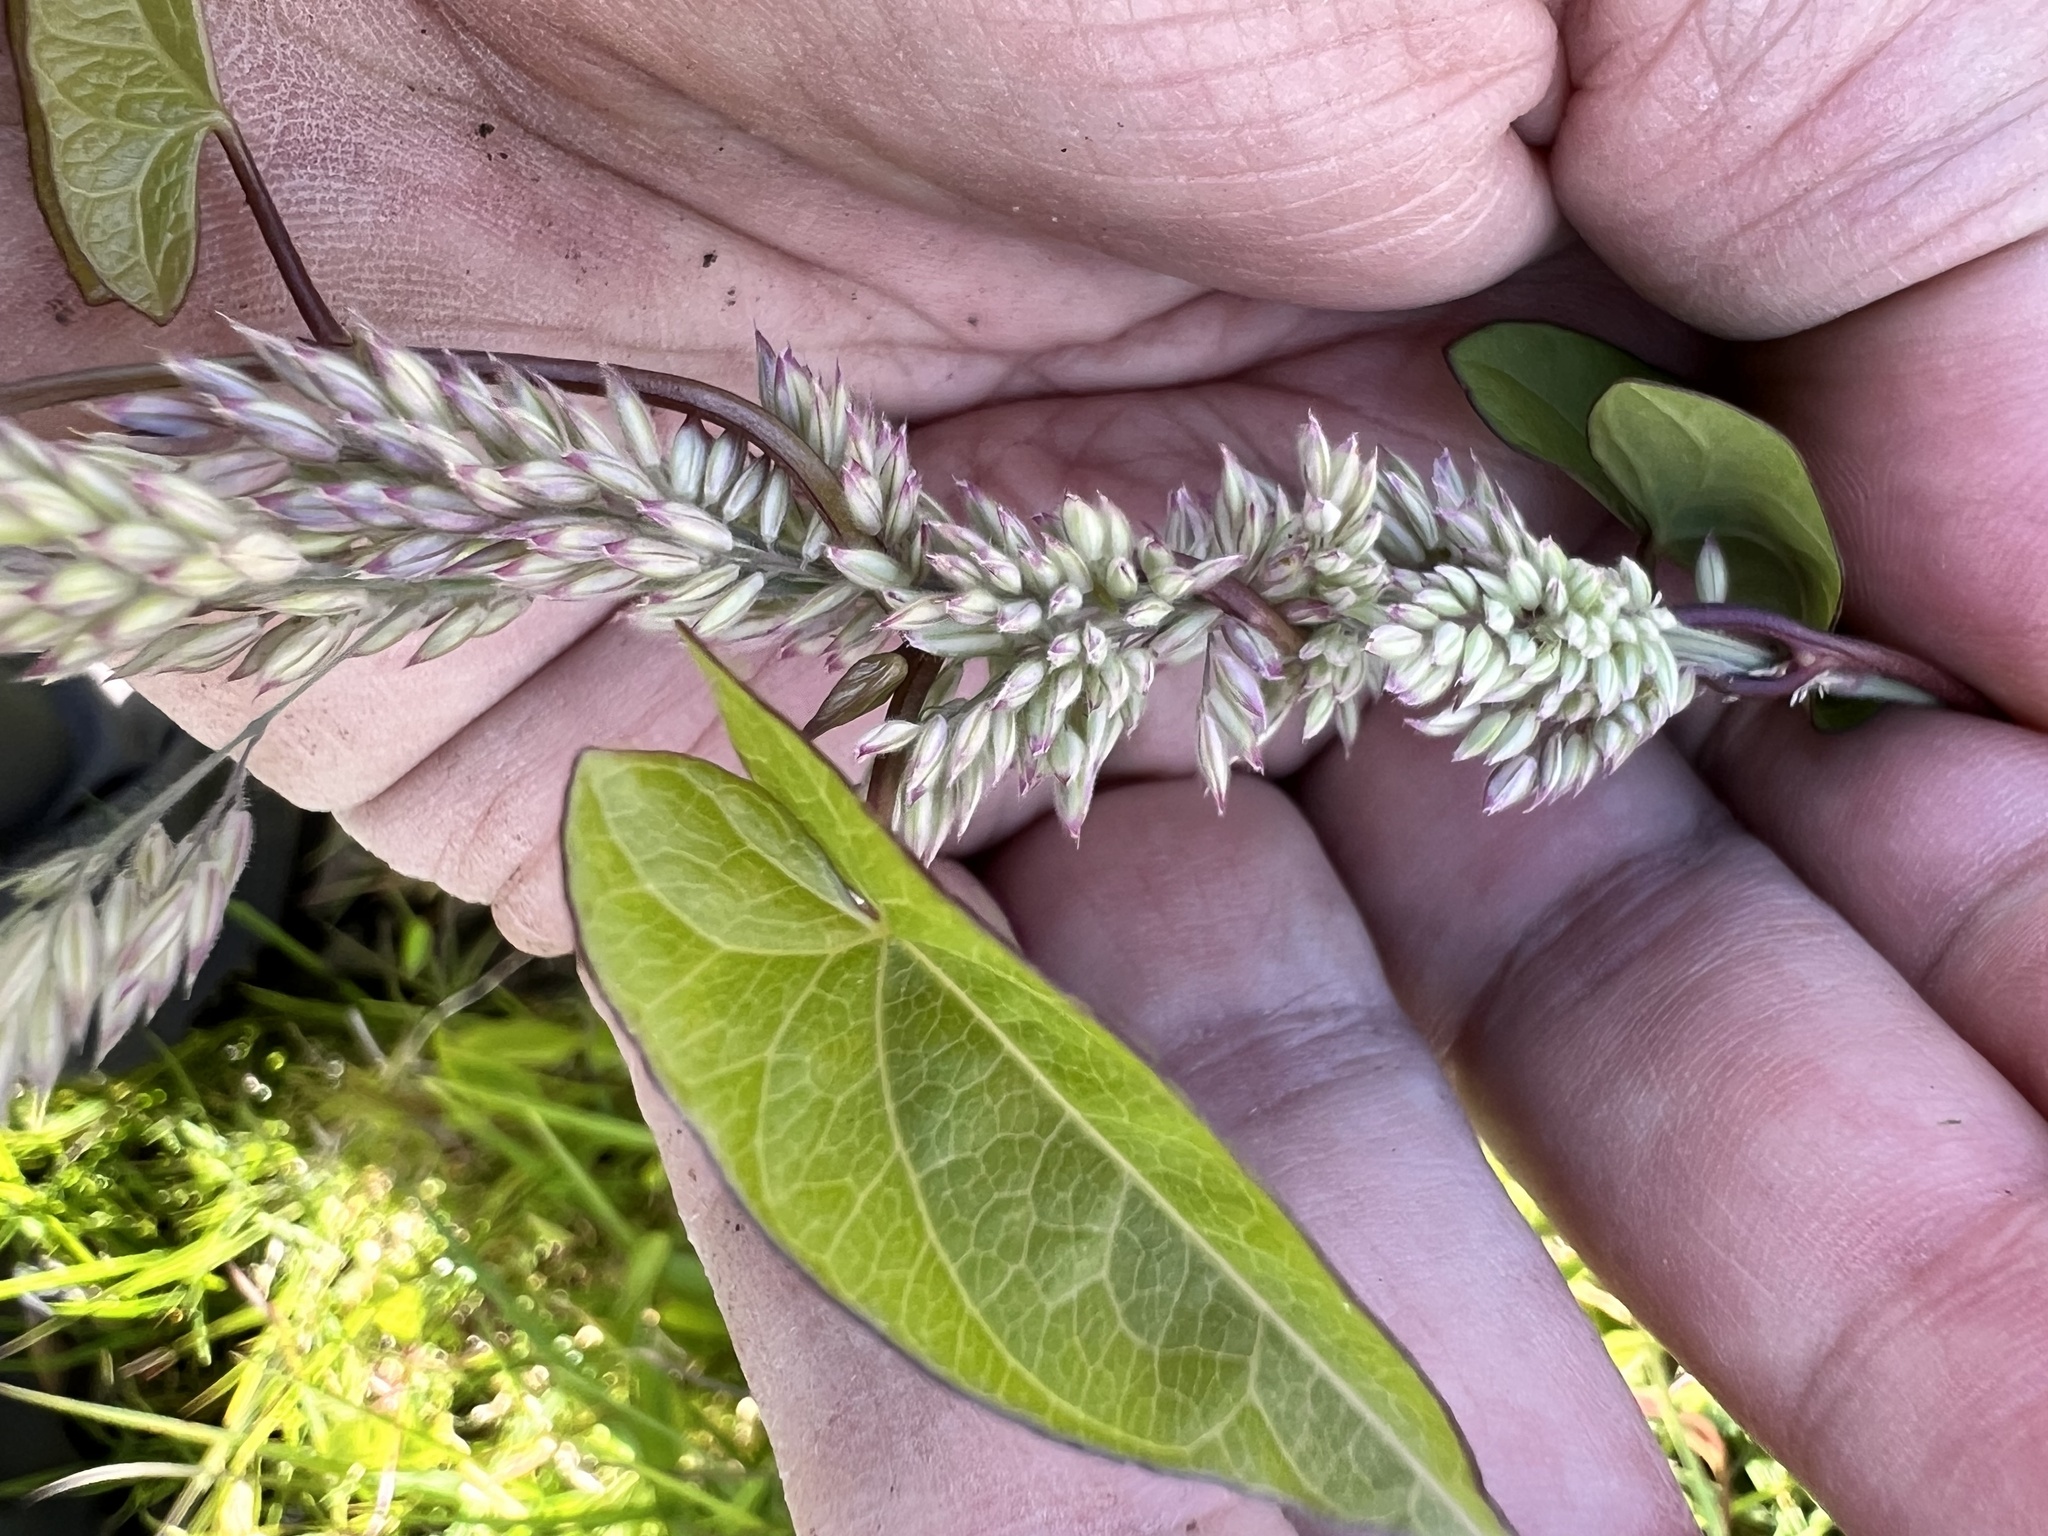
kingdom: Plantae
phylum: Tracheophyta
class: Liliopsida
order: Poales
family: Poaceae
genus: Holcus
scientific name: Holcus lanatus
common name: Yorkshire-fog
